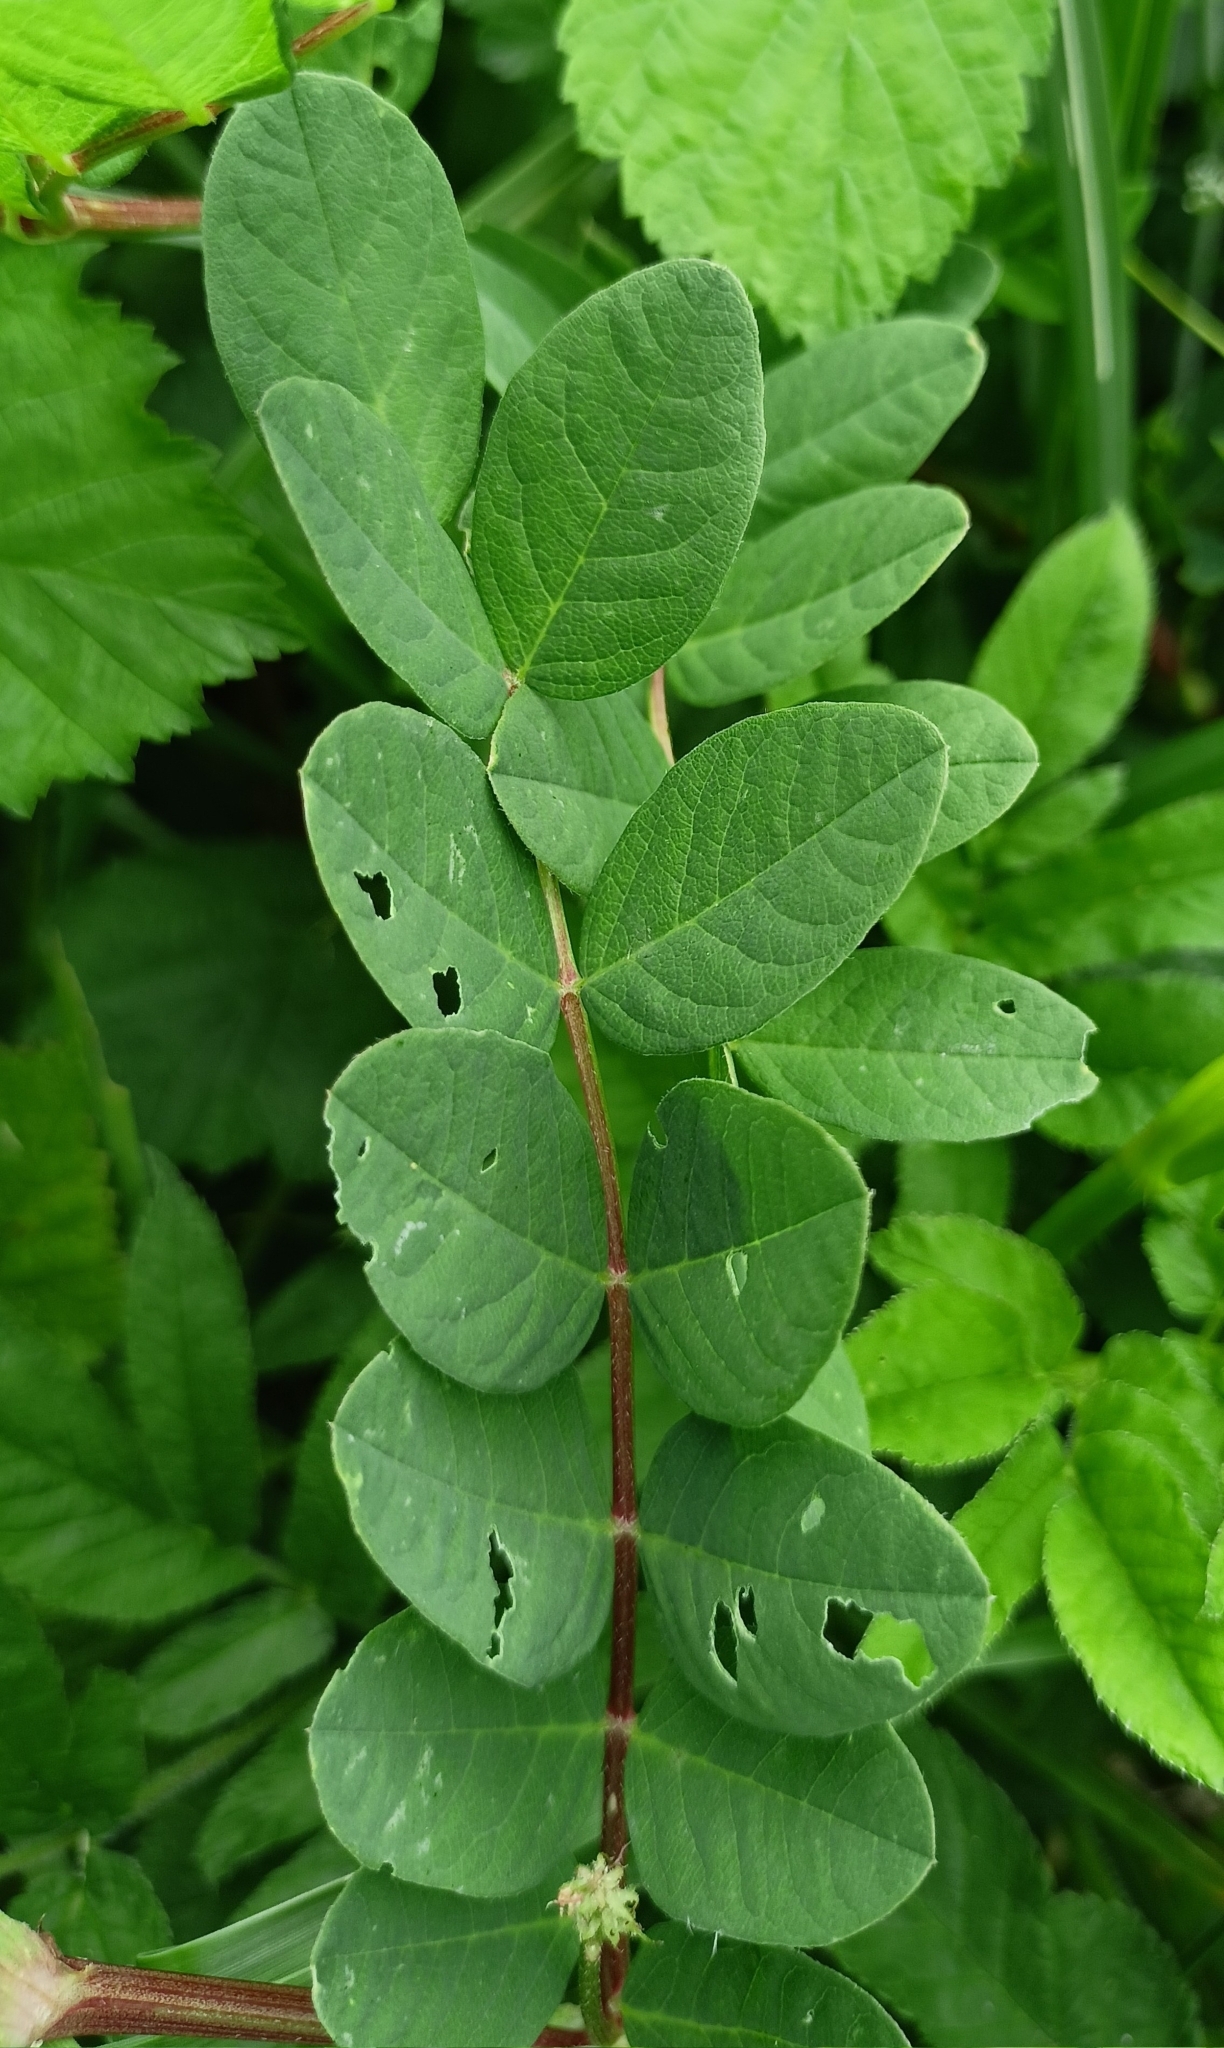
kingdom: Plantae
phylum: Tracheophyta
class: Magnoliopsida
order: Fabales
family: Fabaceae
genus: Astragalus
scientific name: Astragalus glycyphyllos
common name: Wild liquorice
